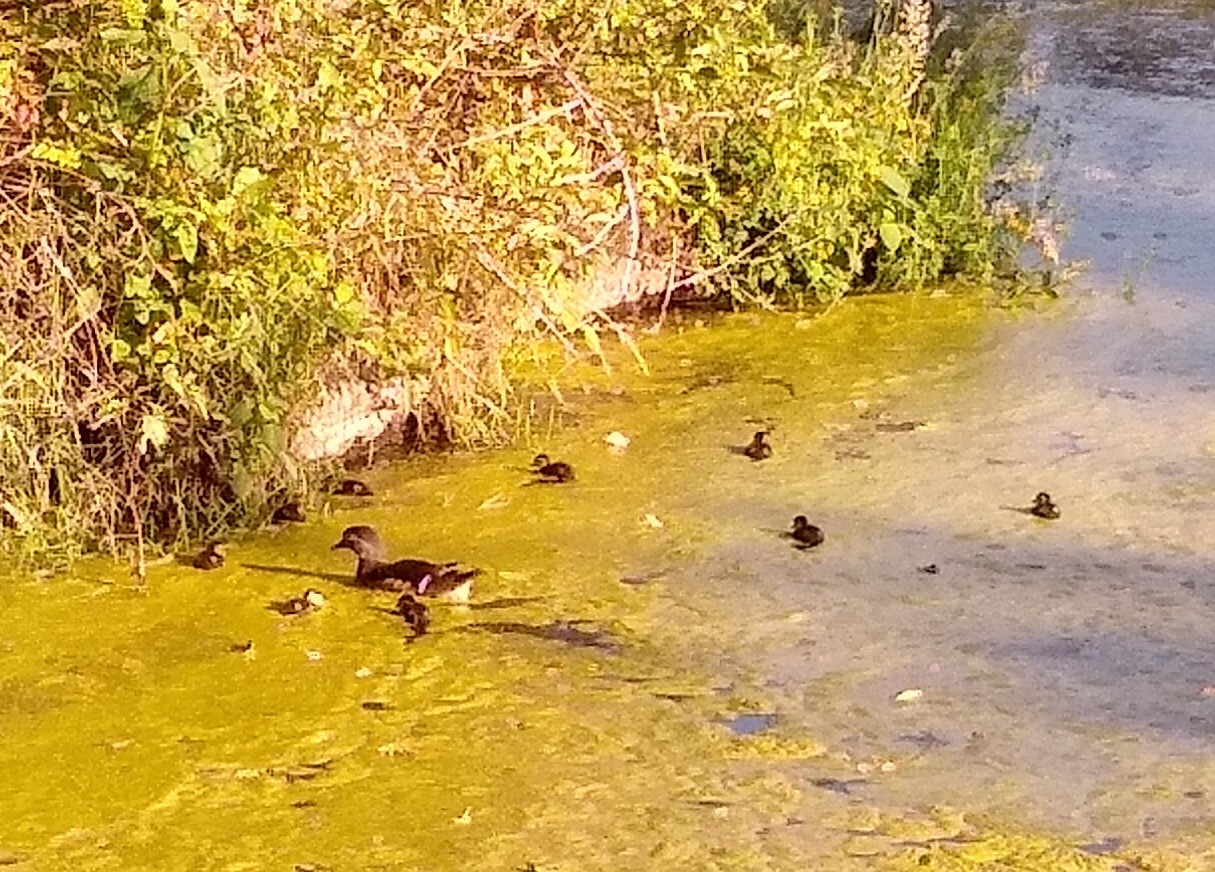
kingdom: Animalia
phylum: Chordata
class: Aves
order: Anseriformes
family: Anatidae
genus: Aix
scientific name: Aix sponsa
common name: Wood duck
